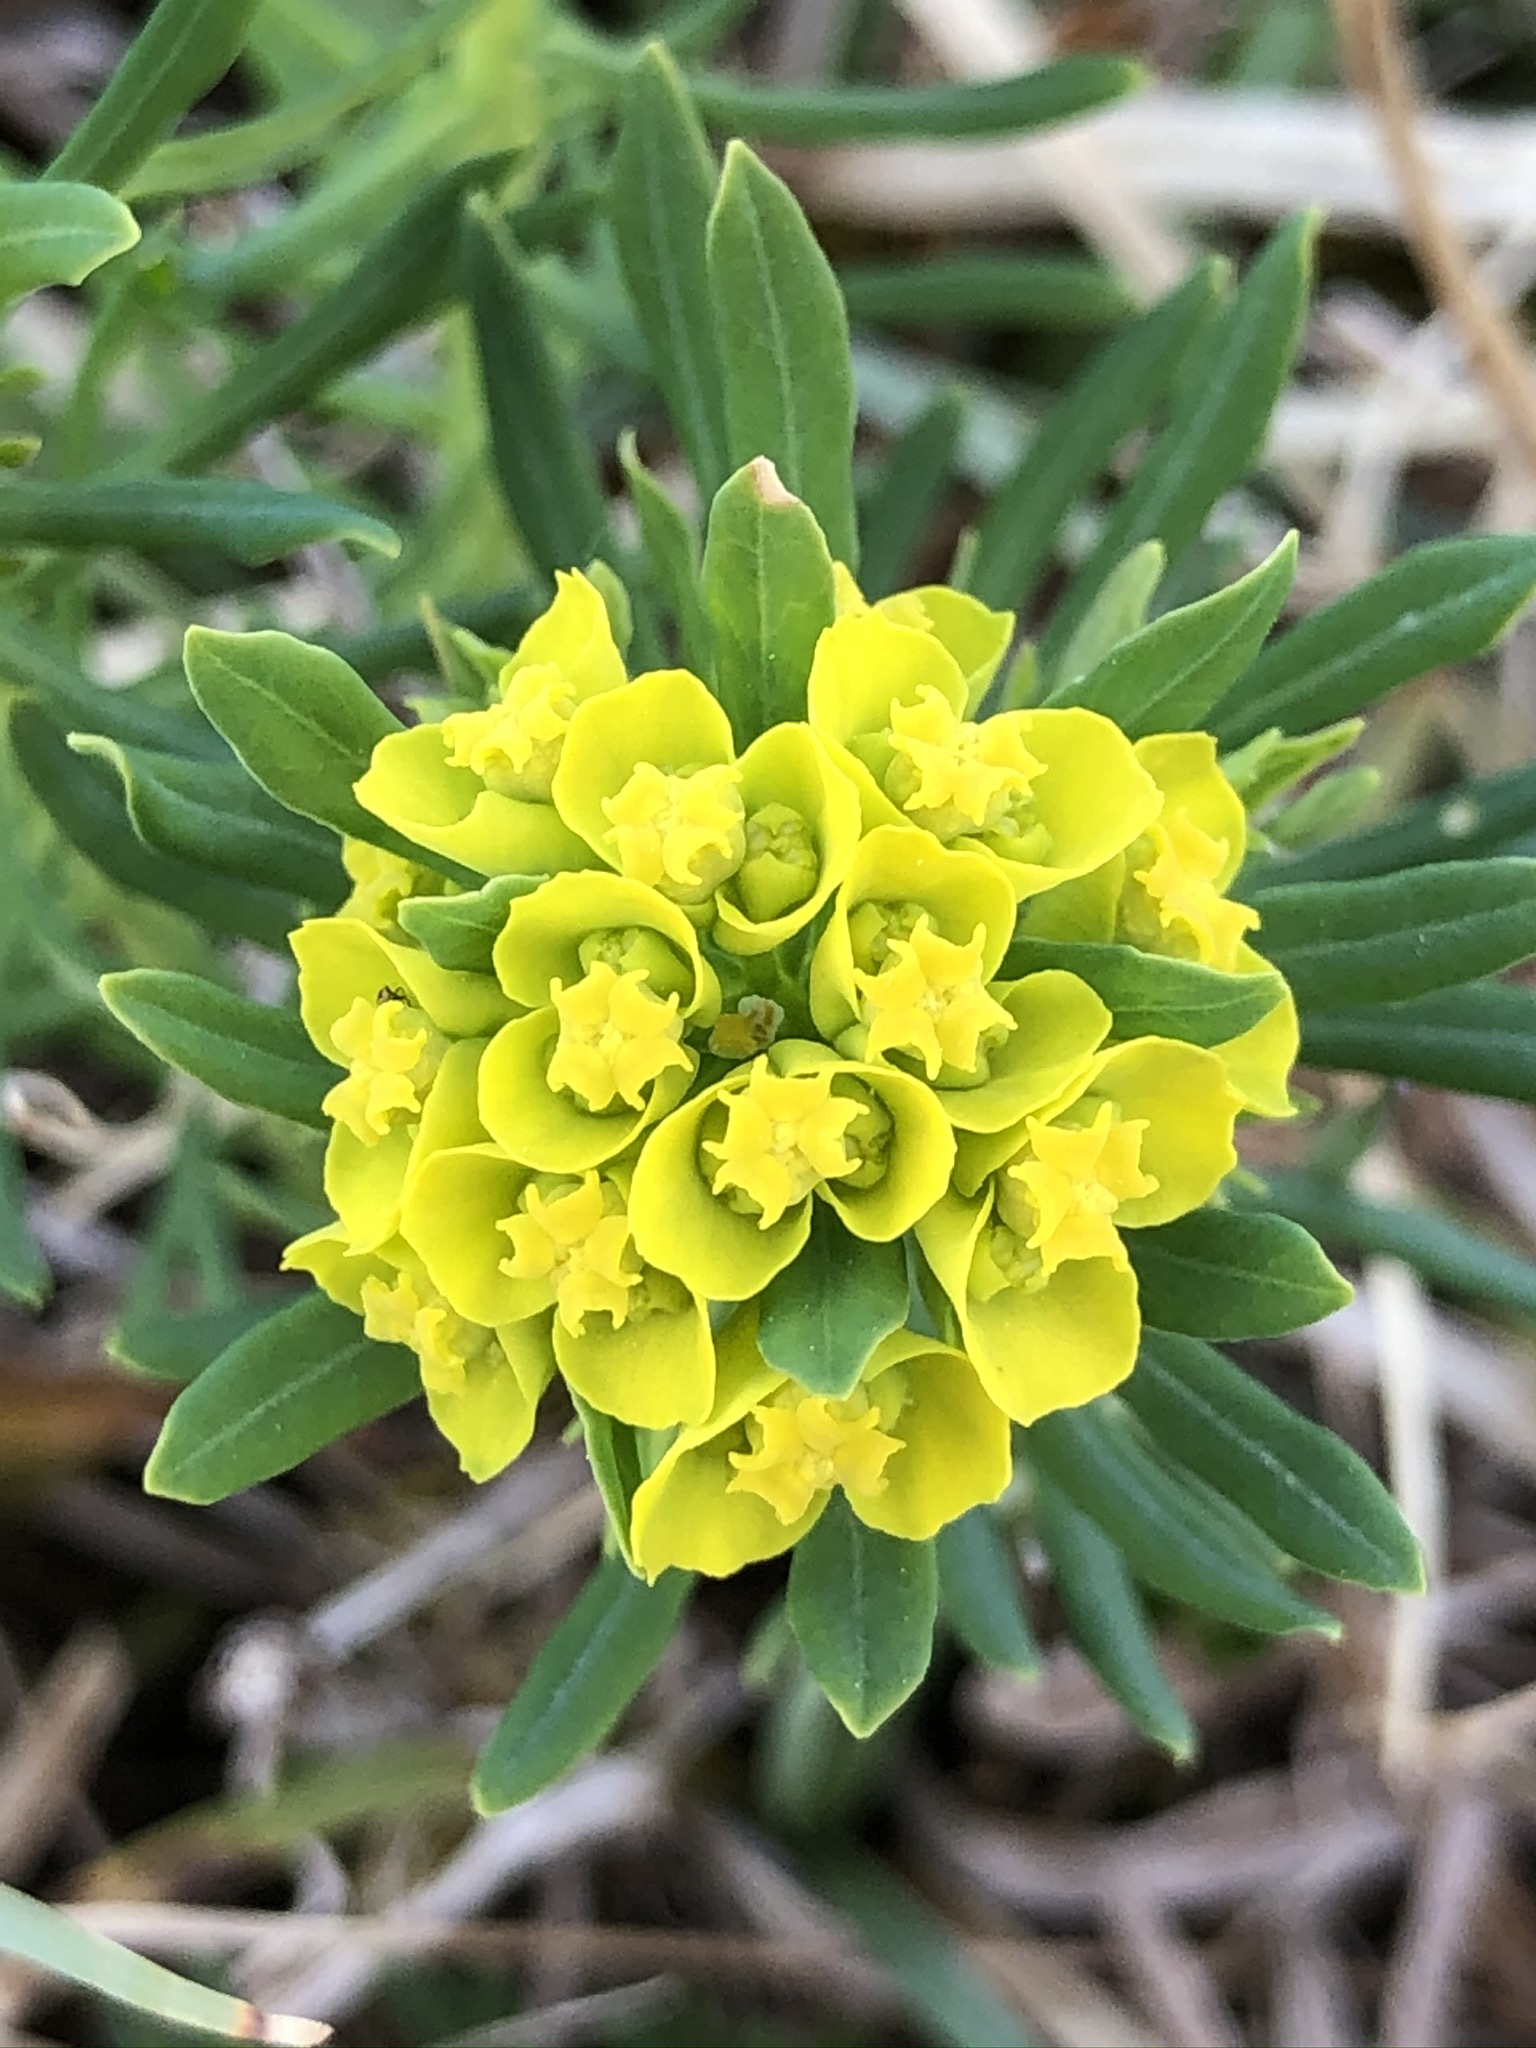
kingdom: Plantae
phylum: Tracheophyta
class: Magnoliopsida
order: Malpighiales
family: Euphorbiaceae
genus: Euphorbia
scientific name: Euphorbia cyparissias
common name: Cypress spurge
